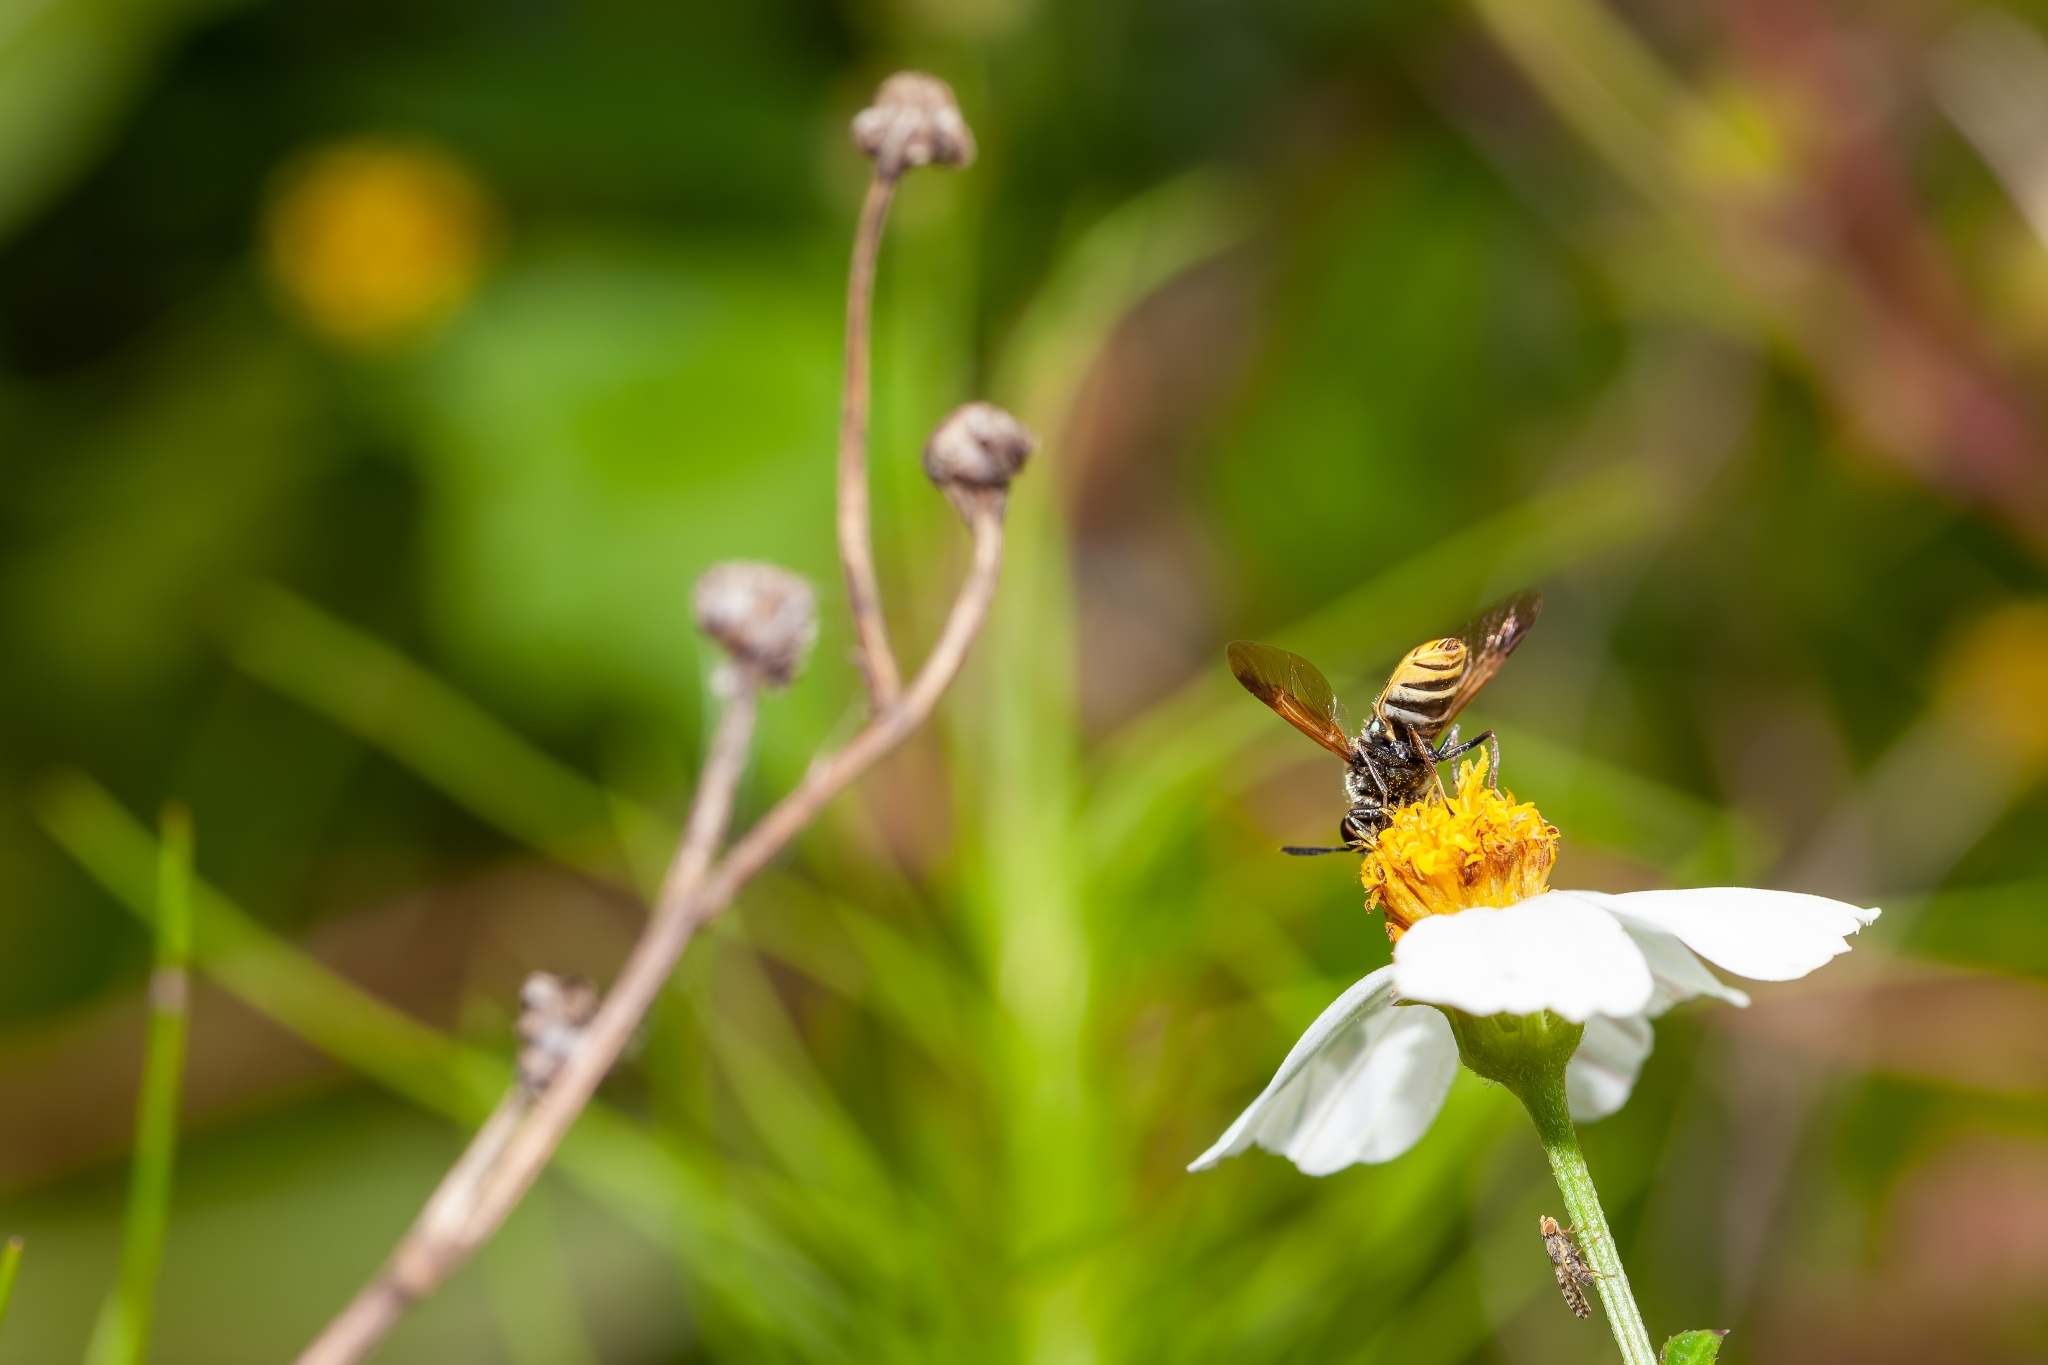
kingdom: Animalia
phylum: Arthropoda
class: Insecta
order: Diptera
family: Stratiomyidae
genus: Hoplitimyia
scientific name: Hoplitimyia mutabilis
